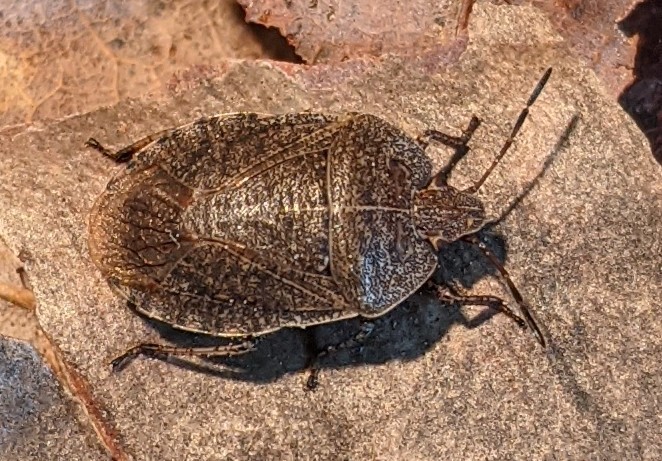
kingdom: Animalia
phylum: Arthropoda
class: Insecta
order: Hemiptera
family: Pentatomidae
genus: Menecles
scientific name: Menecles insertus
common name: Elf shoe stink bug
